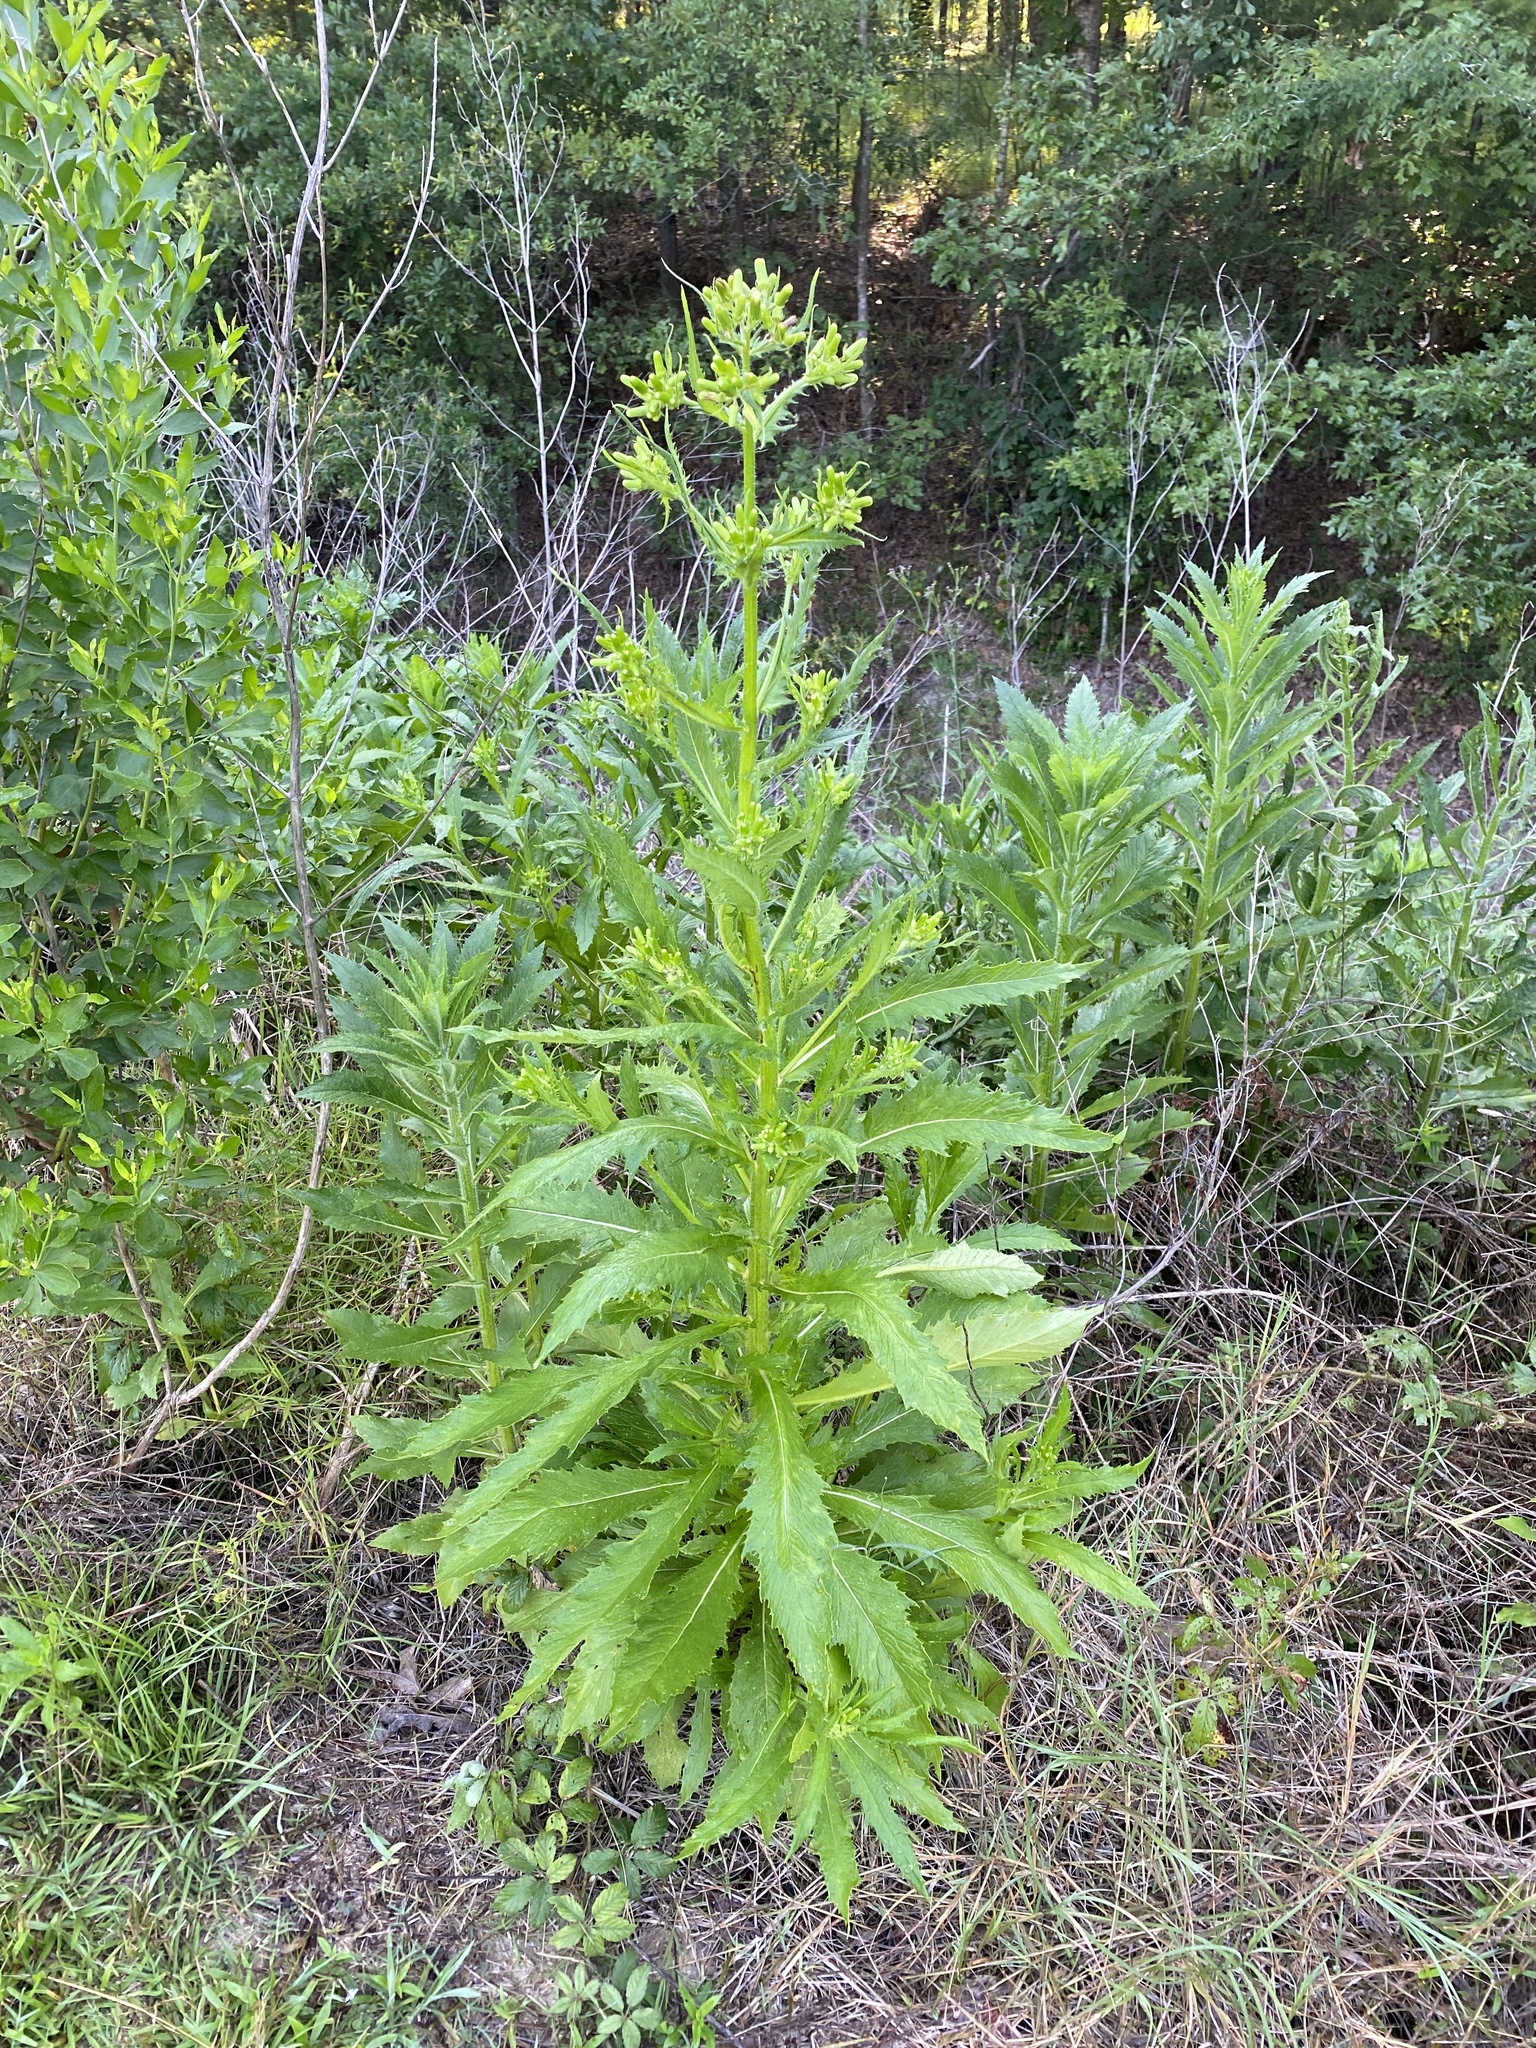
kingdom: Plantae
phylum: Tracheophyta
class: Magnoliopsida
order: Asterales
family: Asteraceae
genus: Erechtites
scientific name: Erechtites hieraciifolius
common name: American burnweed
